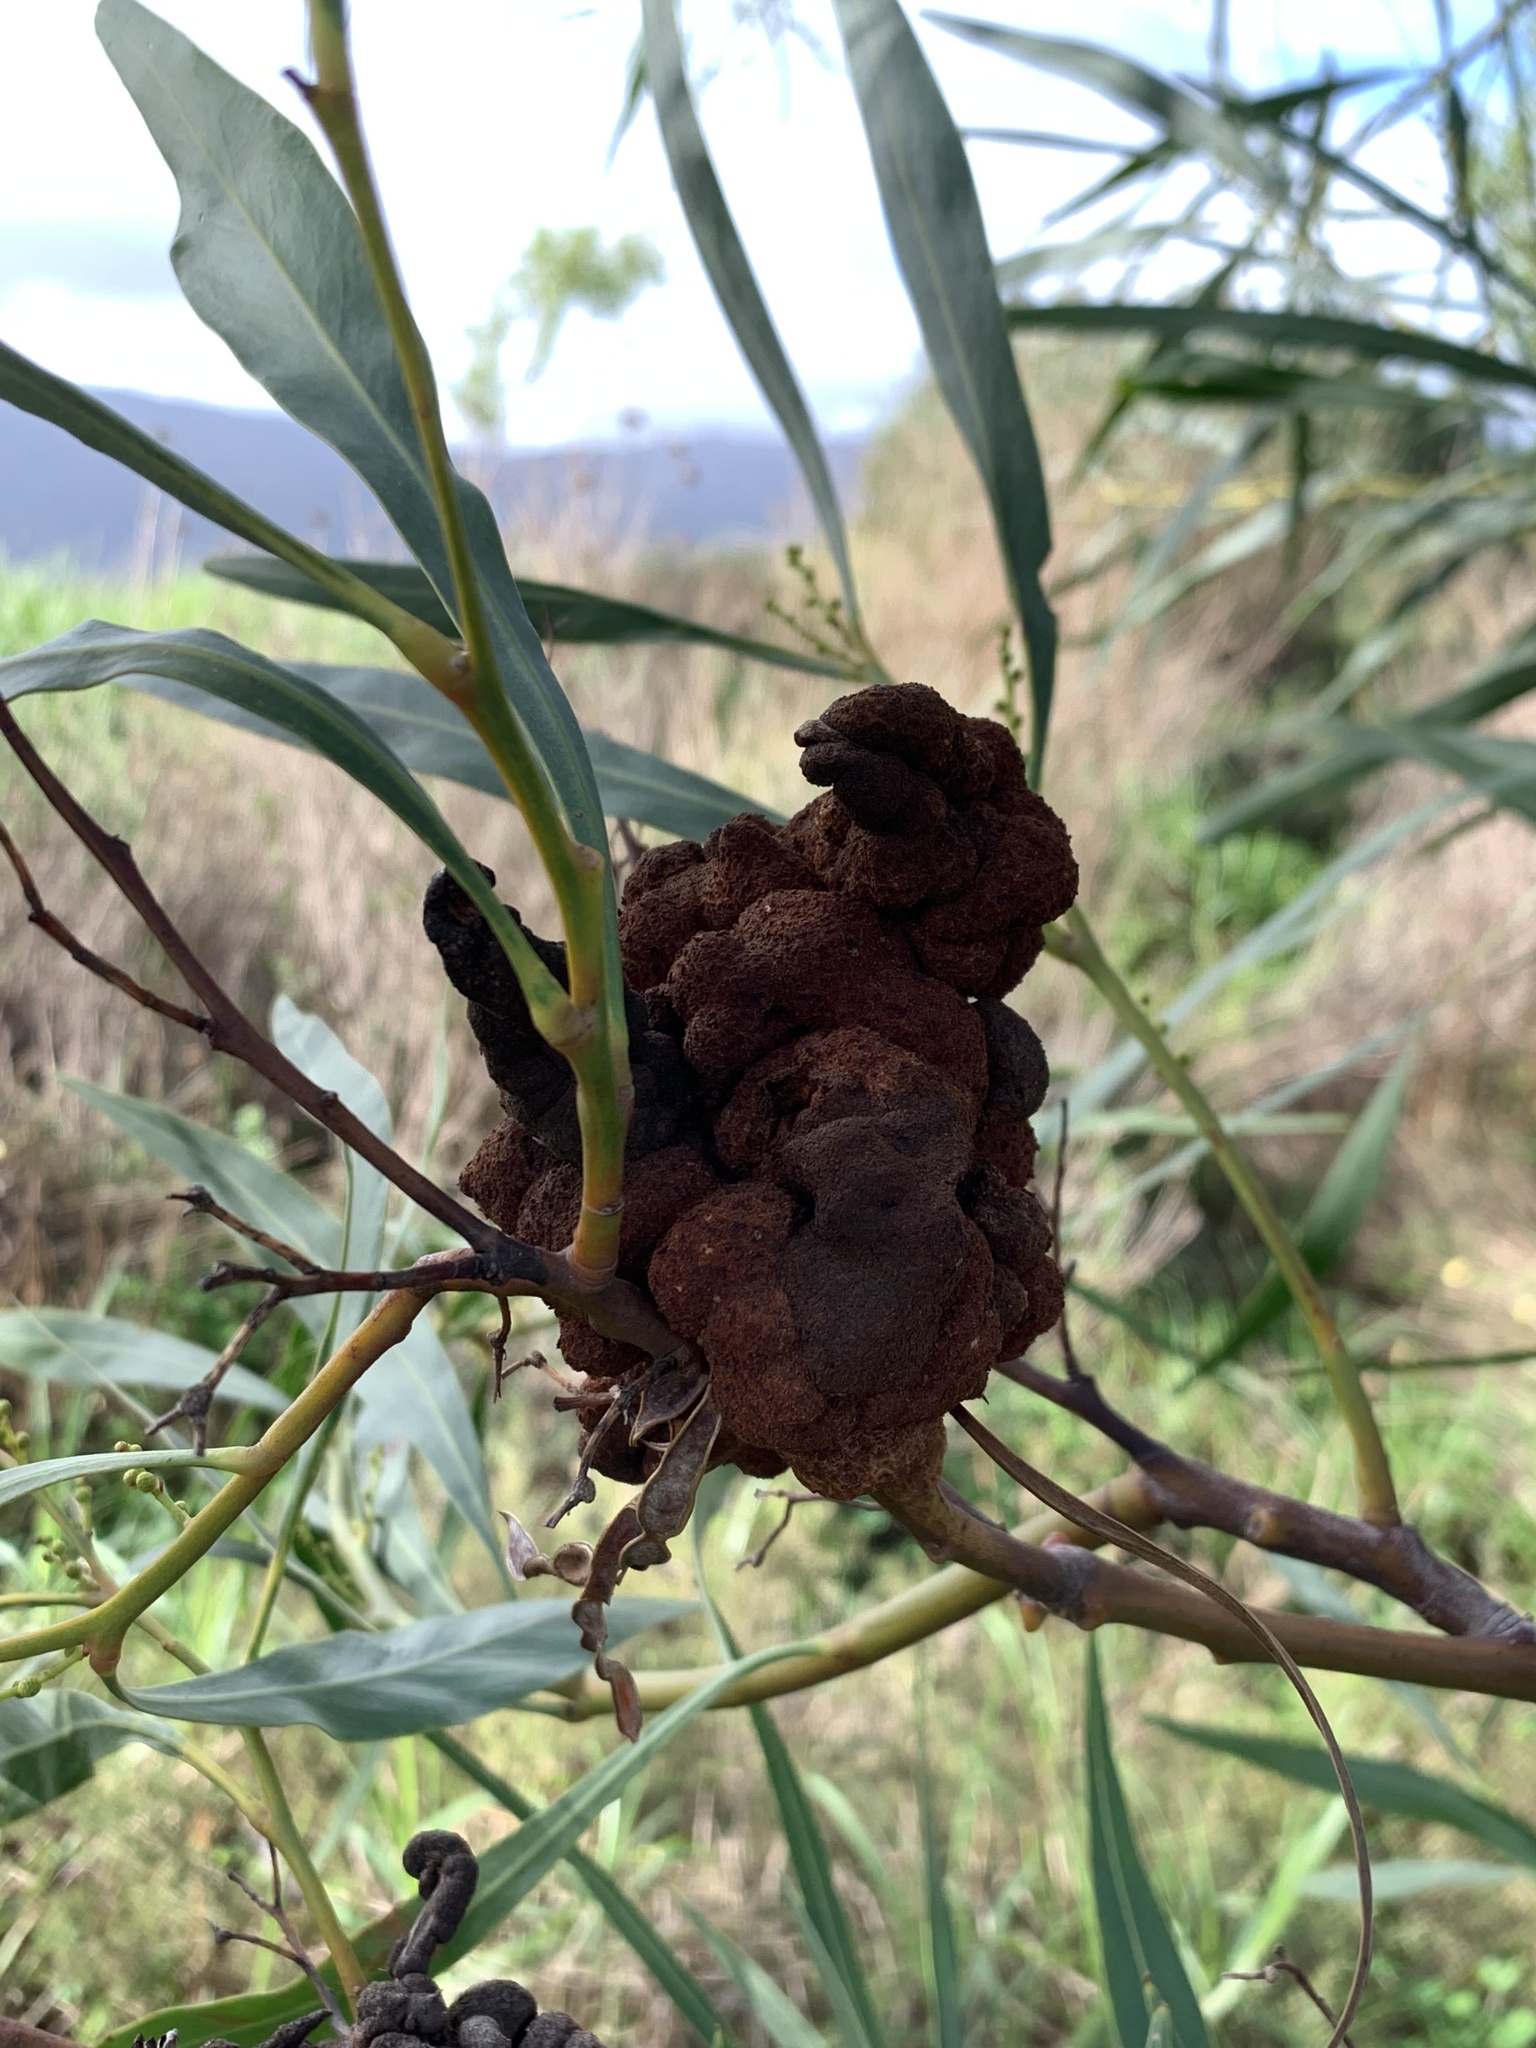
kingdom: Plantae
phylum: Tracheophyta
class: Magnoliopsida
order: Fabales
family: Fabaceae
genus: Acacia
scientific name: Acacia saligna
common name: Orange wattle
